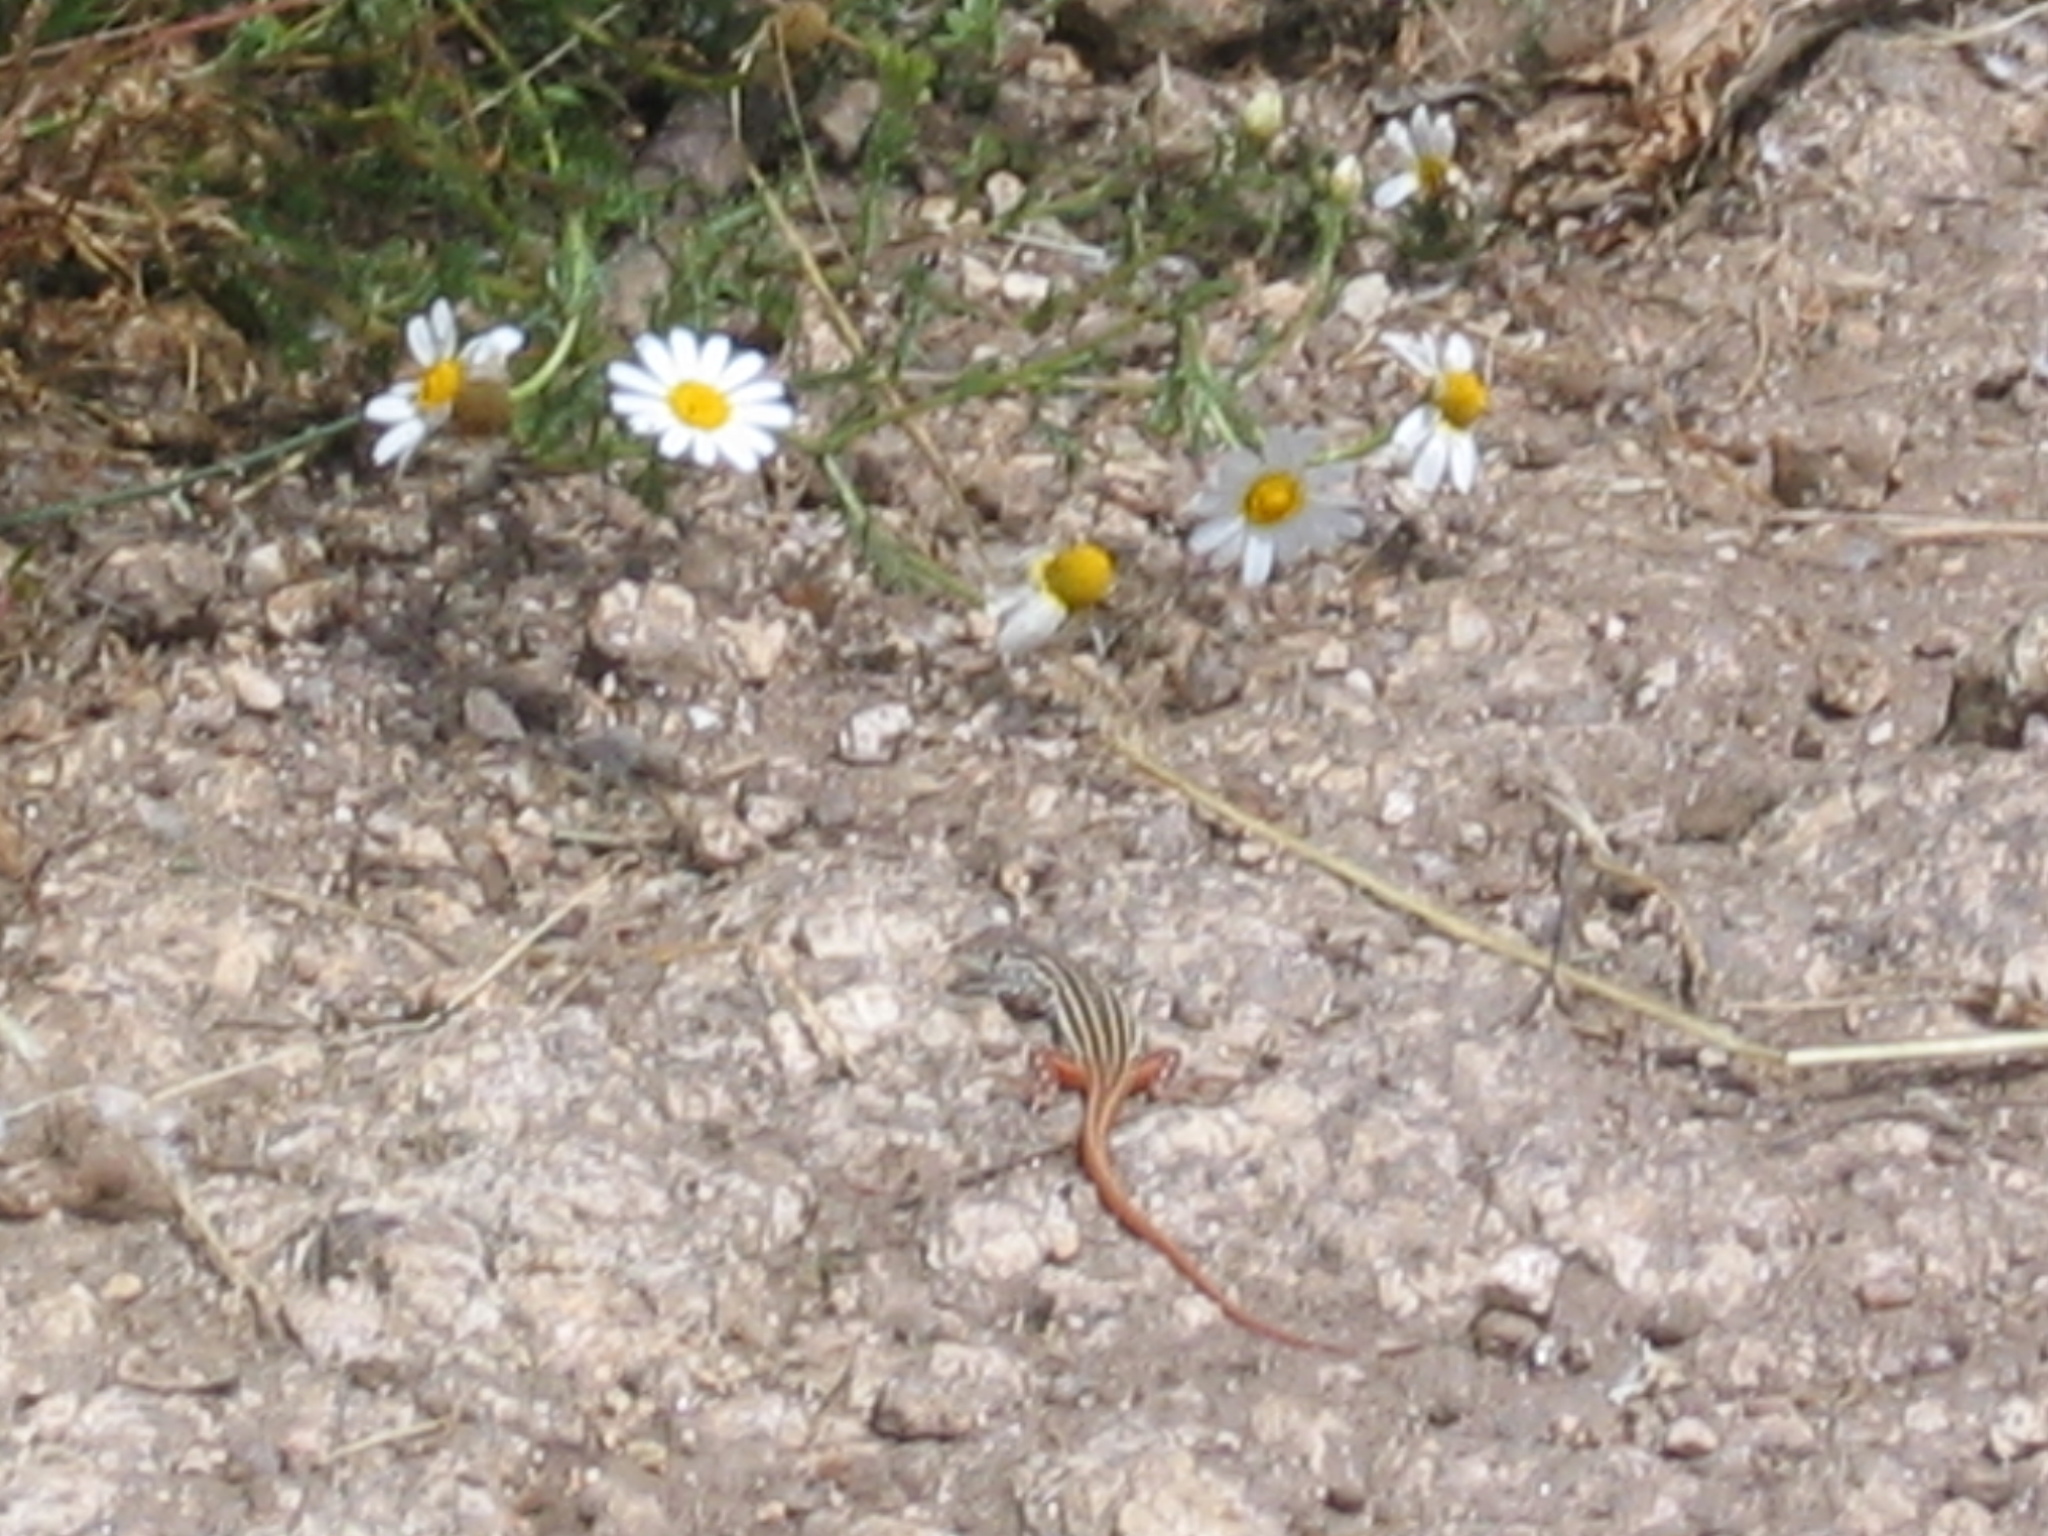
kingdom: Animalia
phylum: Chordata
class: Squamata
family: Lacertidae
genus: Acanthodactylus
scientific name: Acanthodactylus erythrurus
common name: Spiny-footed lizard
